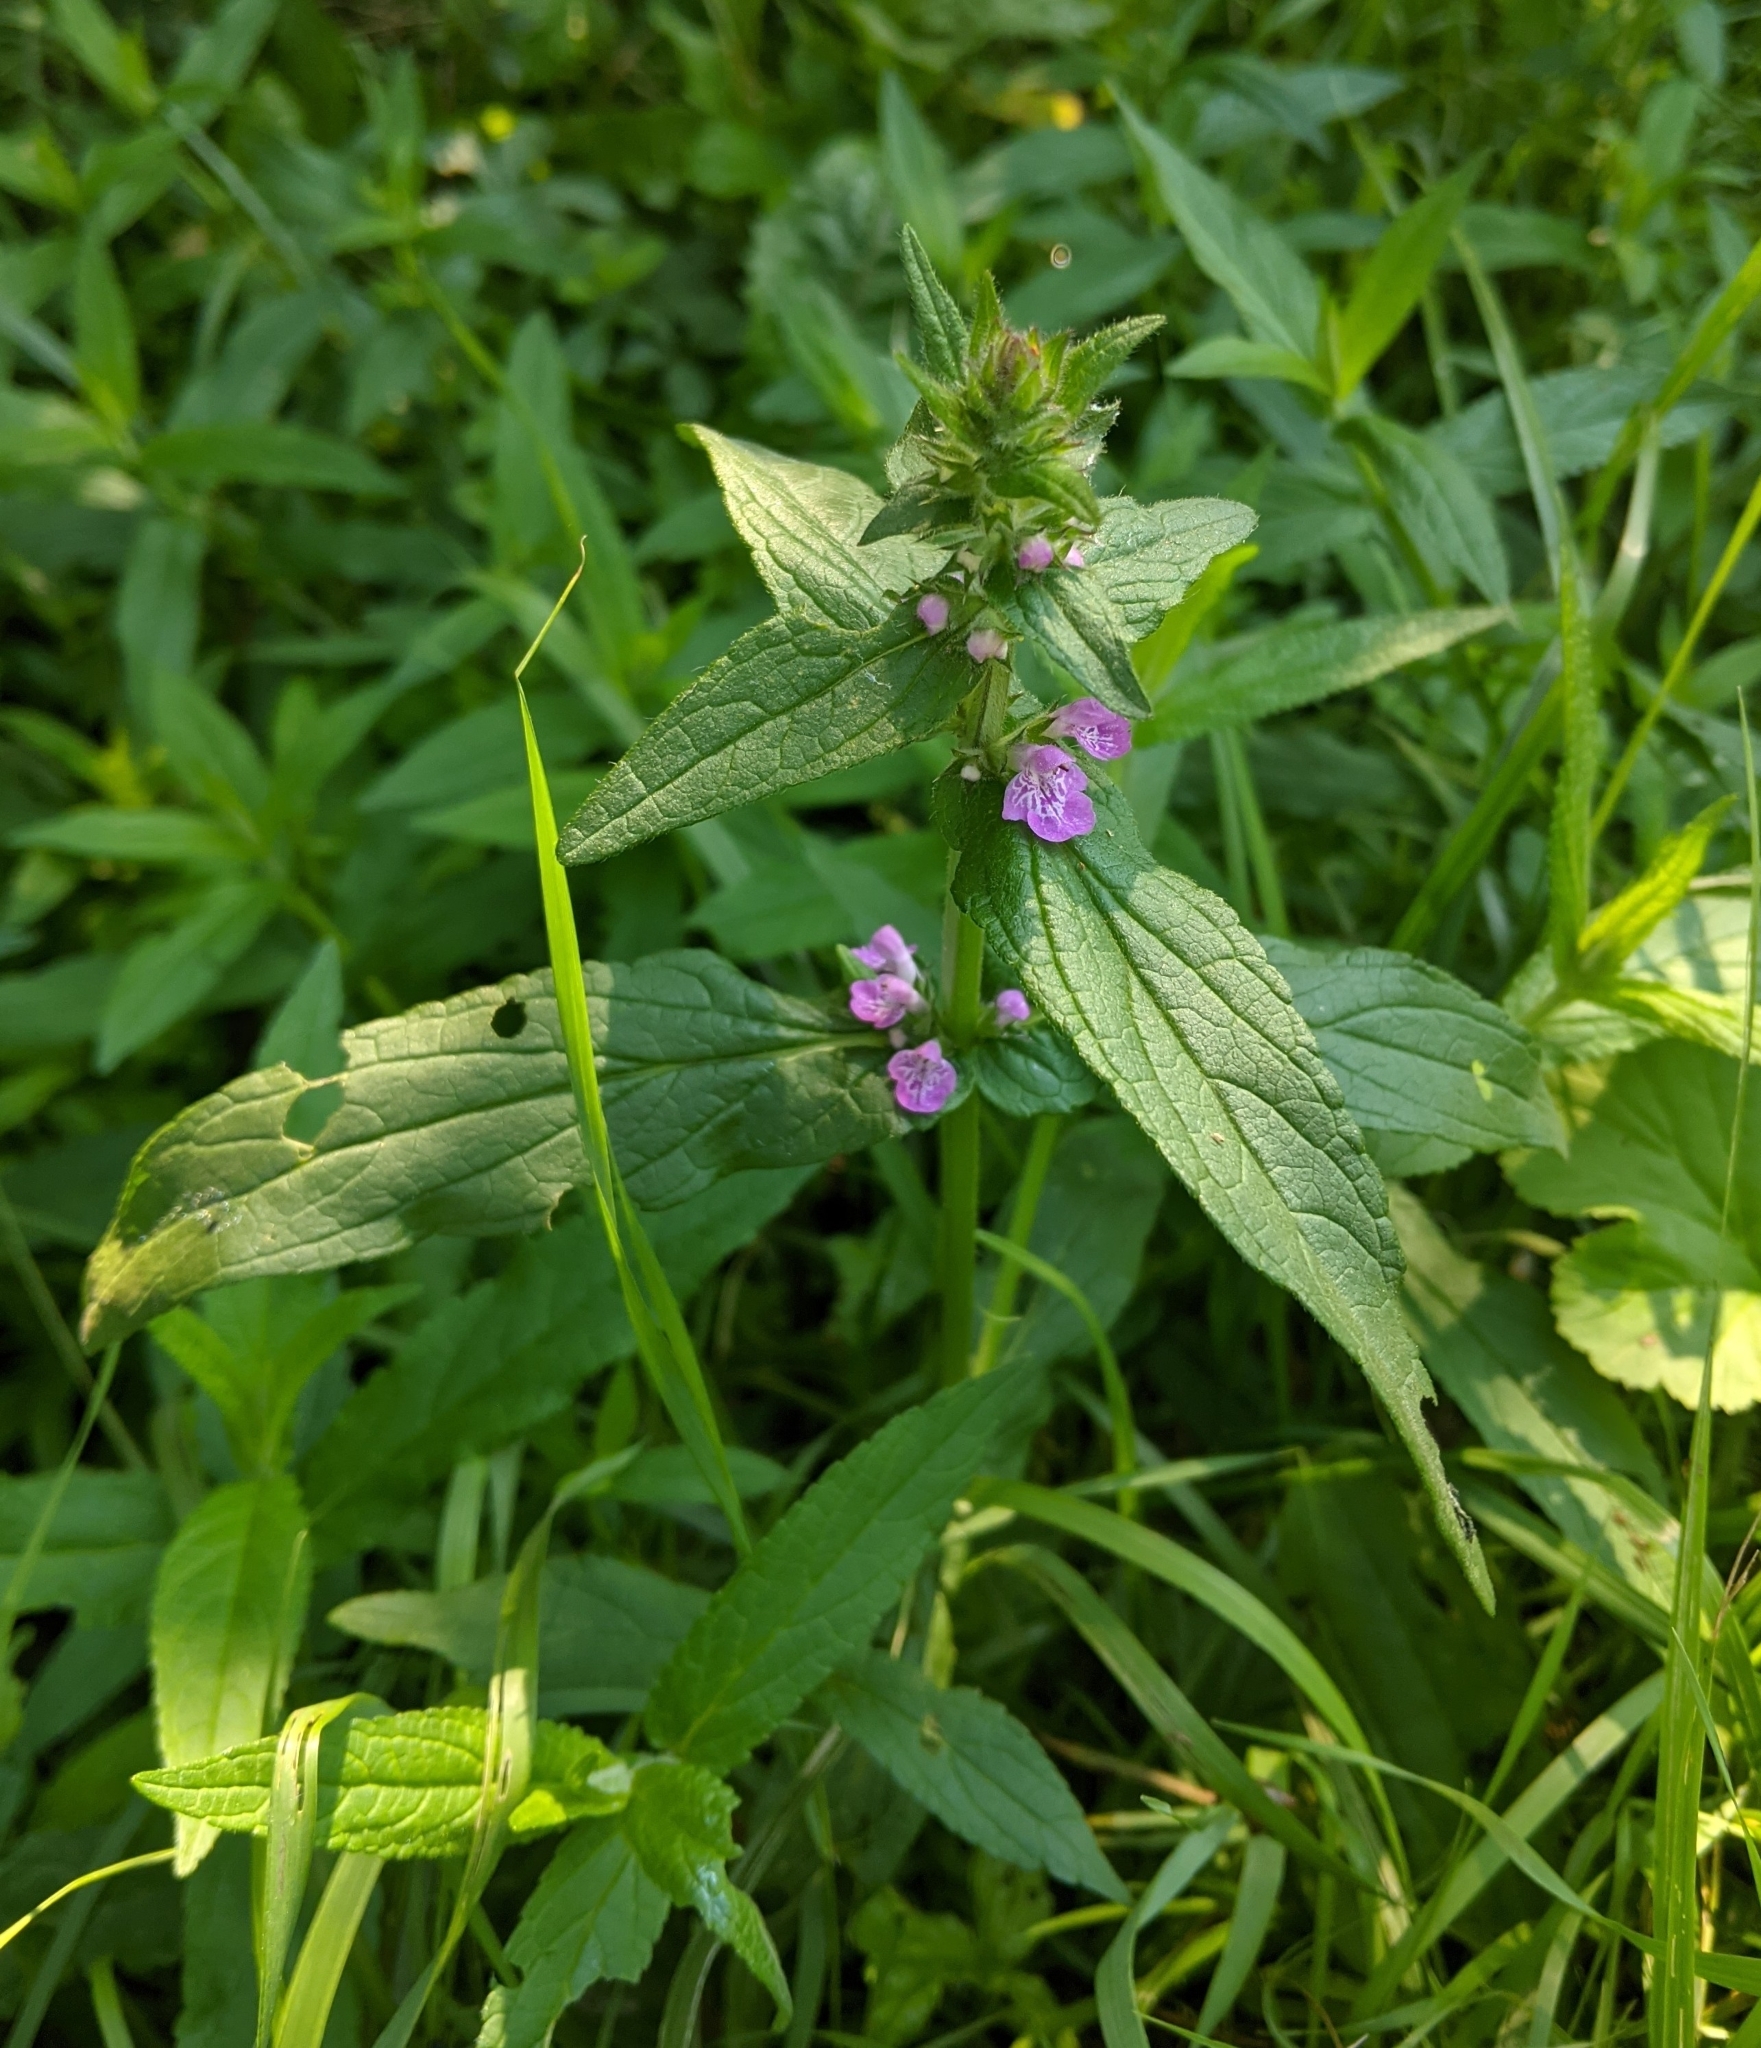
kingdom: Plantae
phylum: Tracheophyta
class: Magnoliopsida
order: Lamiales
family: Lamiaceae
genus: Stachys
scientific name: Stachys palustris
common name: Marsh woundwort
